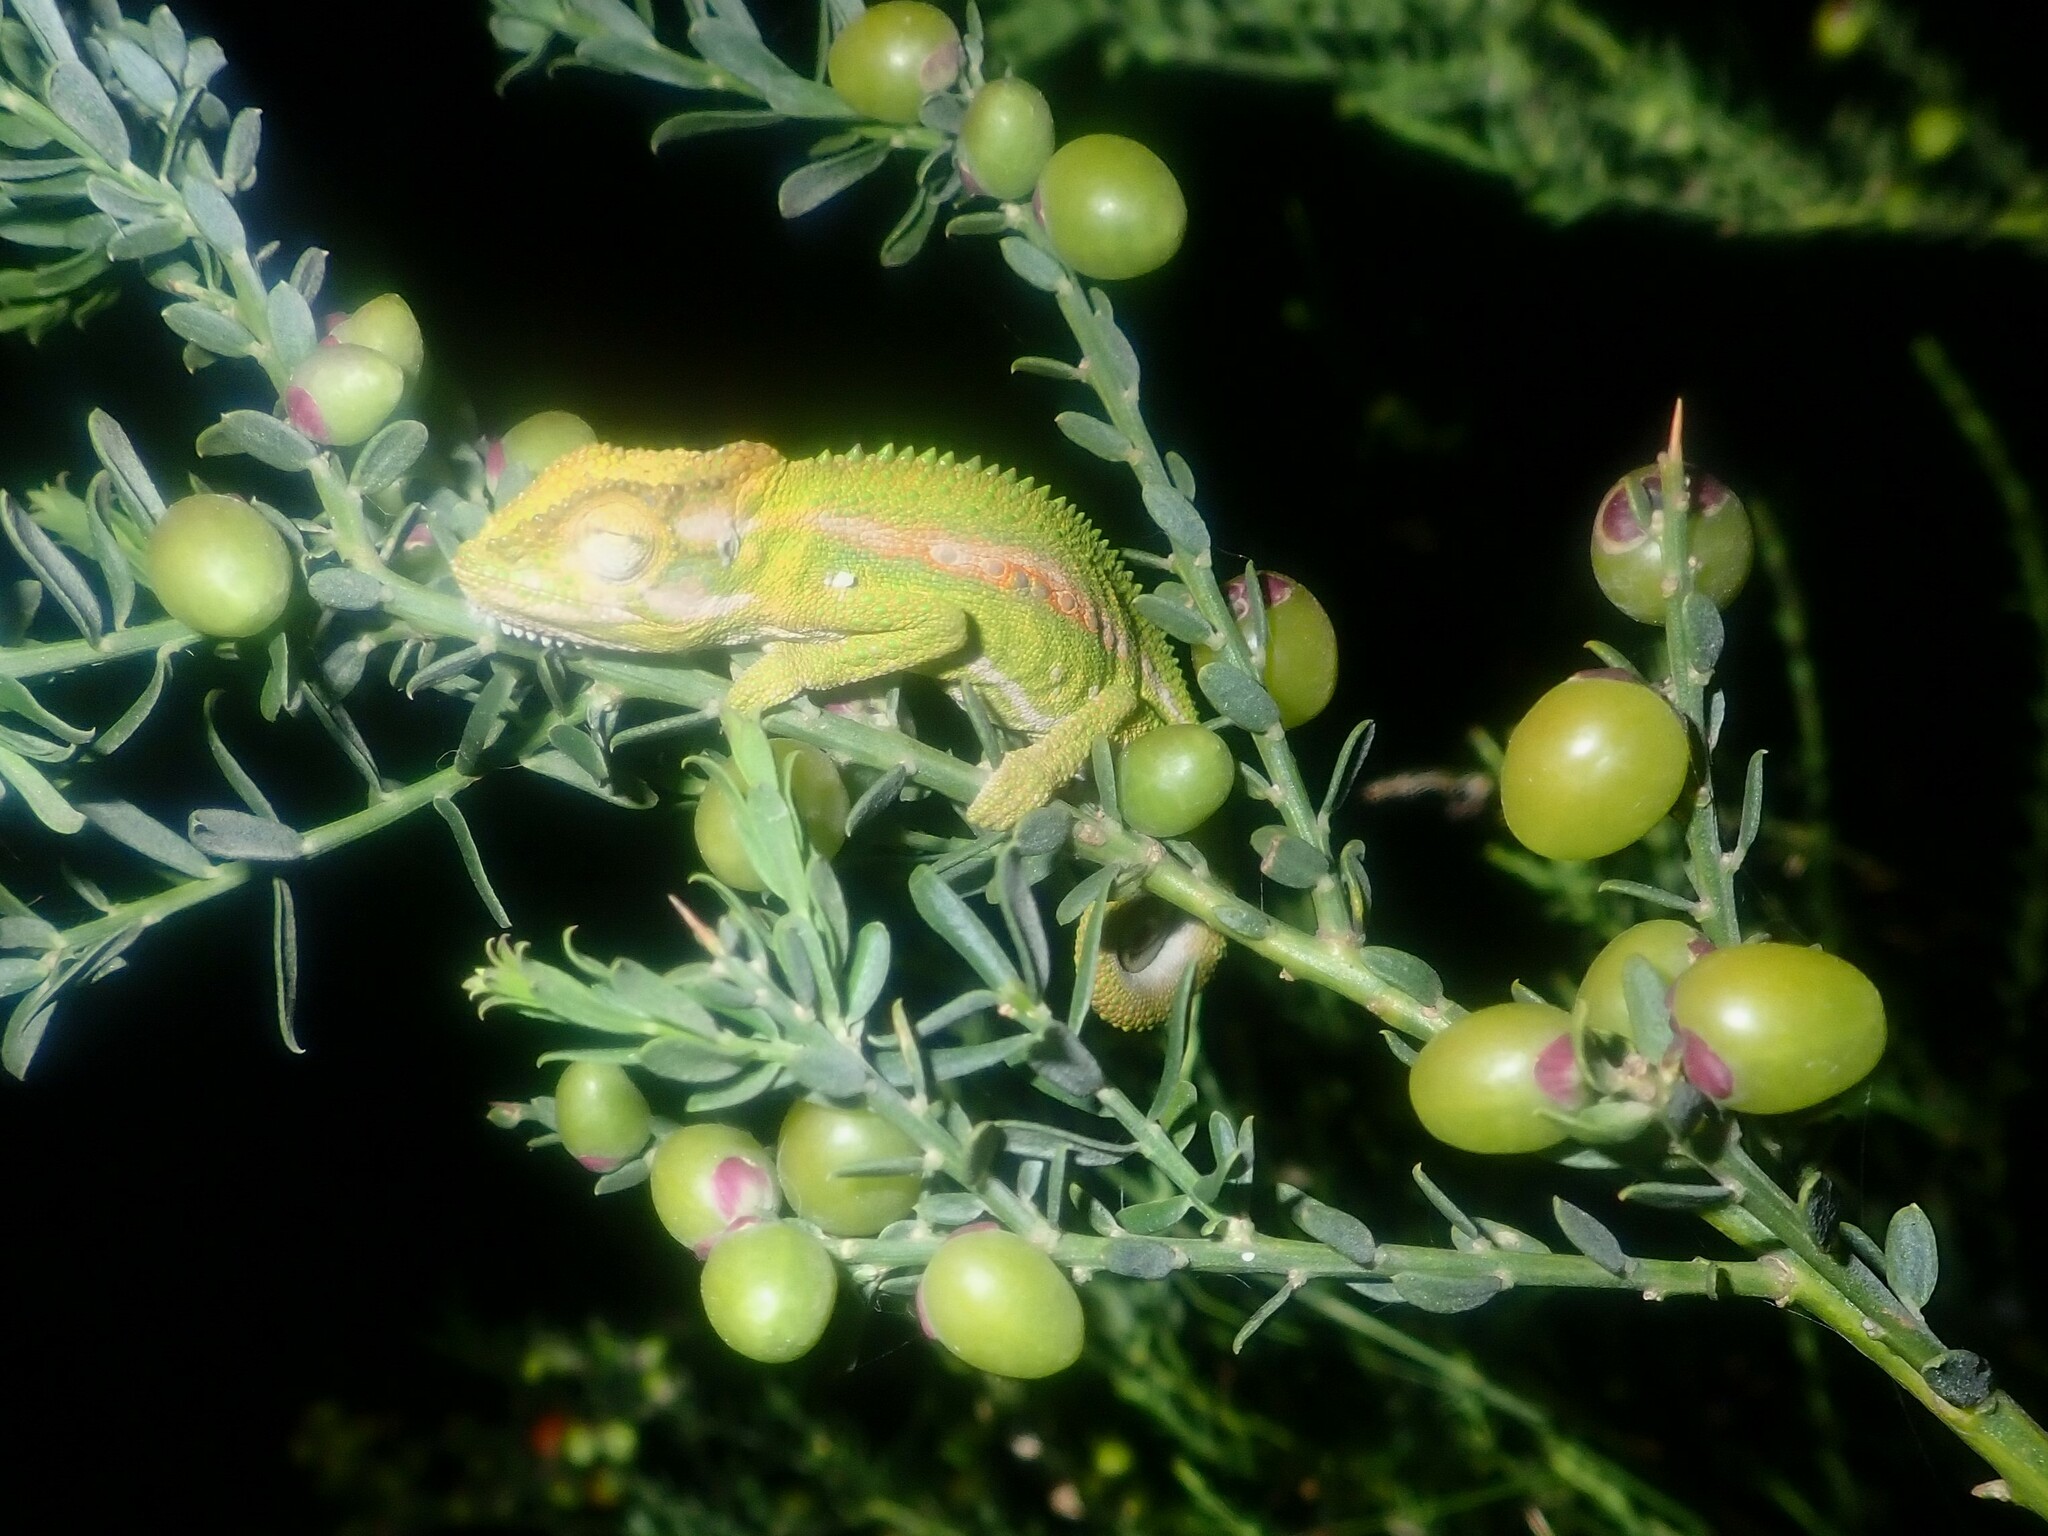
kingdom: Animalia
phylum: Chordata
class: Squamata
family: Chamaeleonidae
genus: Bradypodion
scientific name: Bradypodion pumilum
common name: Cape dwarf chameleon
